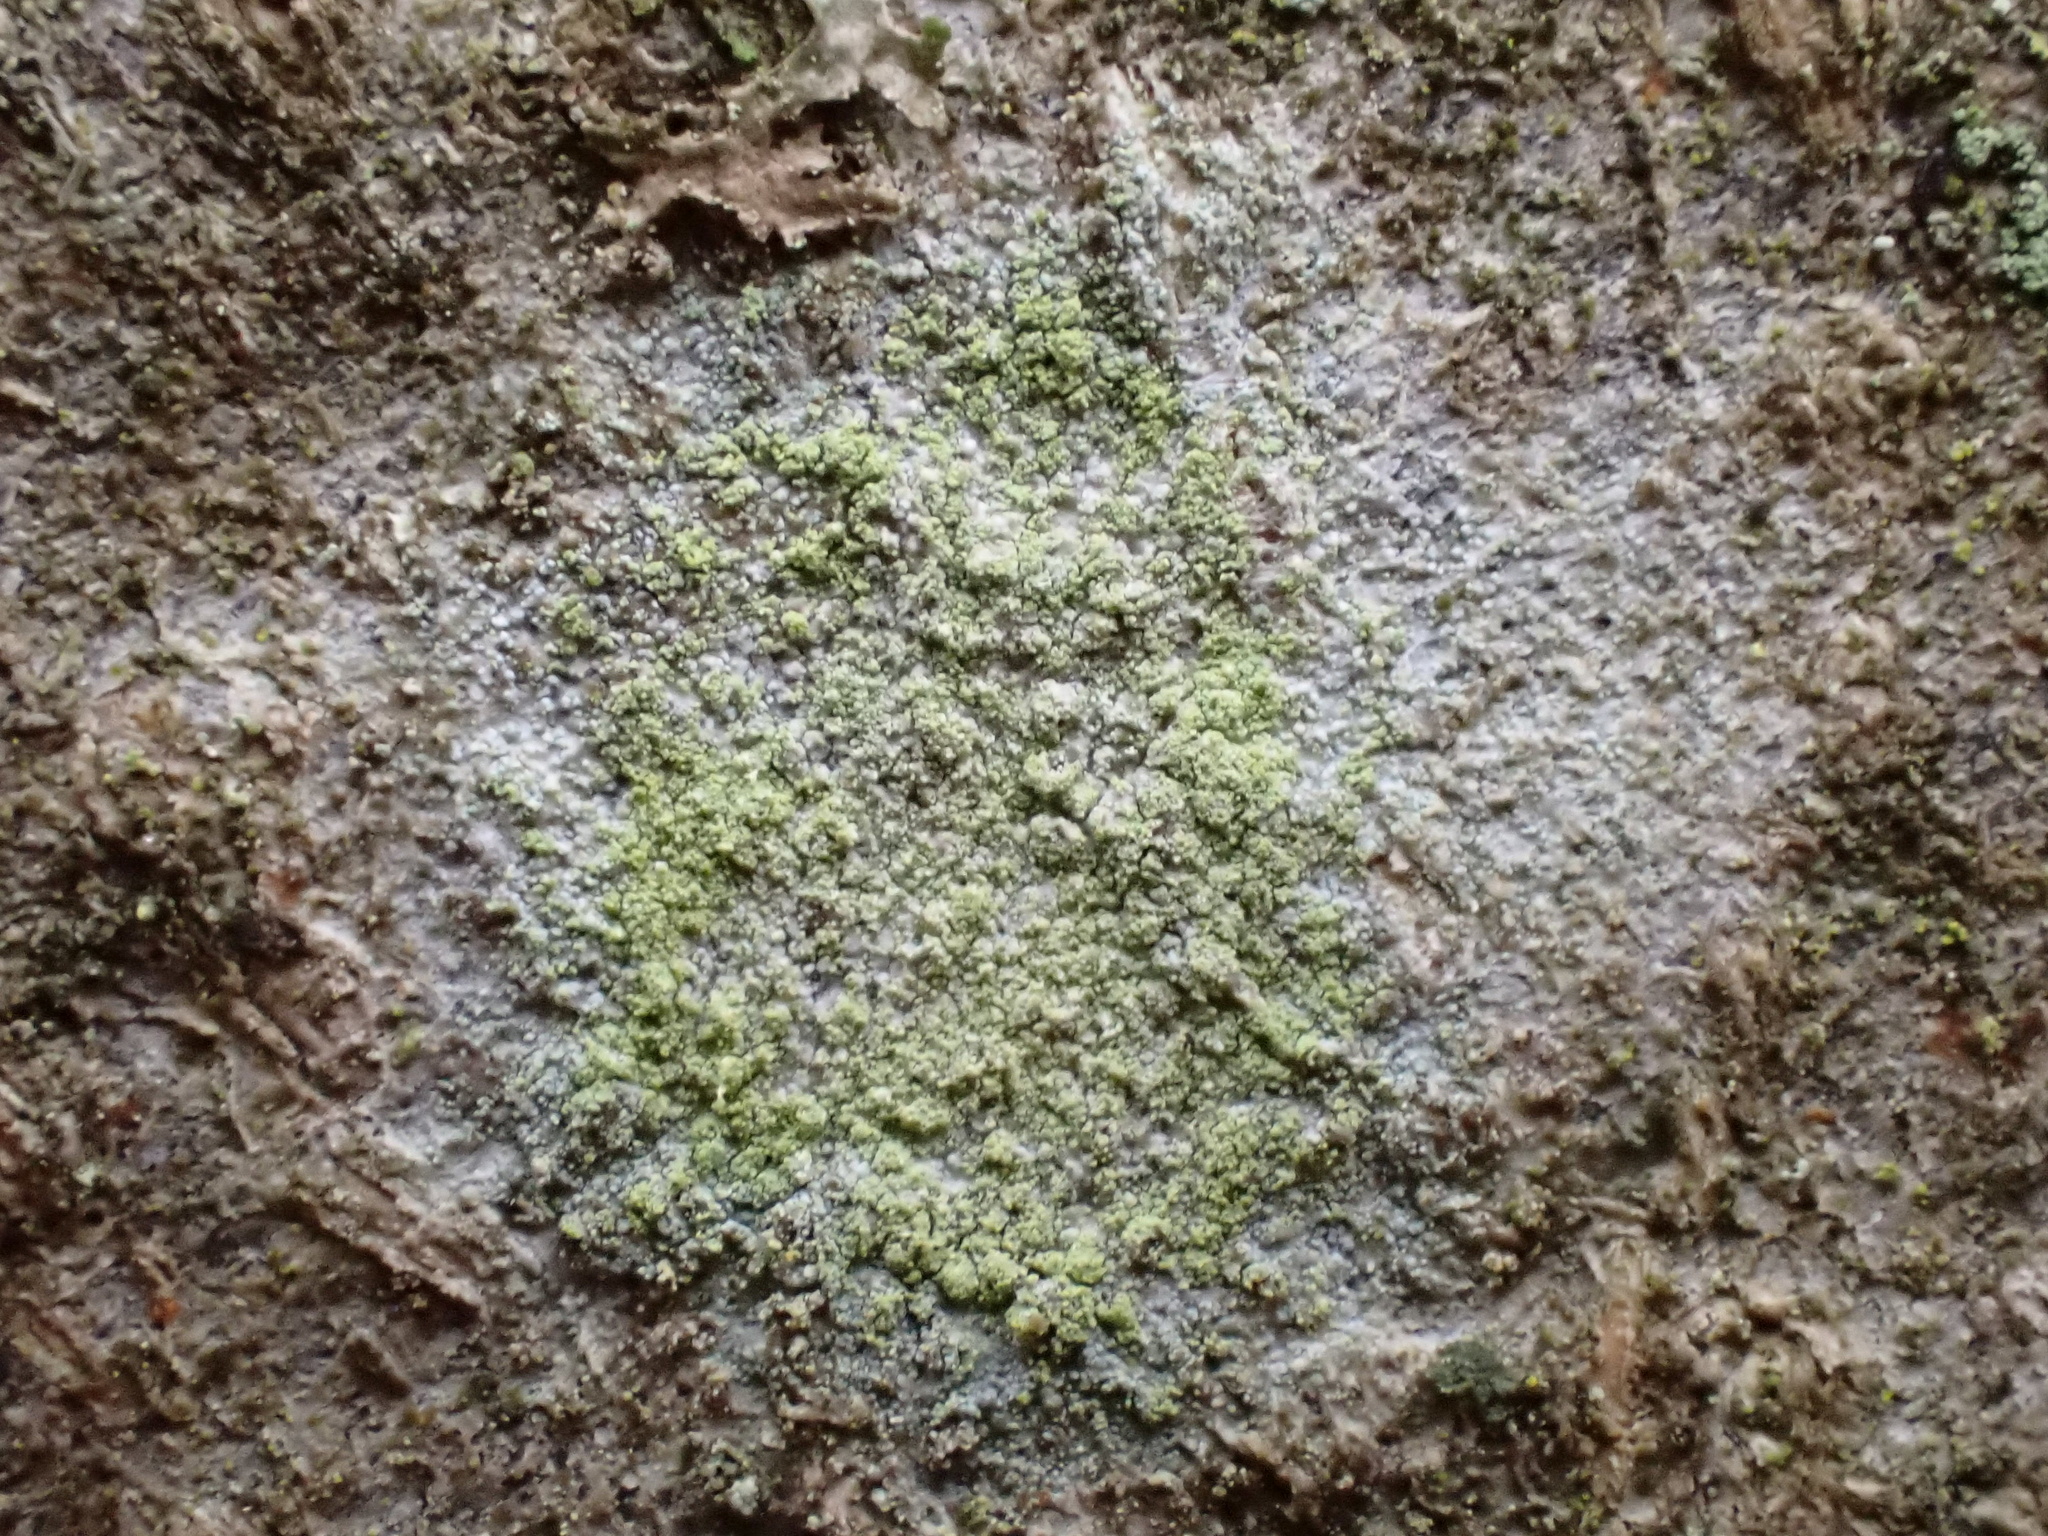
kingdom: Fungi
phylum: Ascomycota
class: Lecanoromycetes
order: Lecanorales
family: Lecanoraceae
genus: Lecanora
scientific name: Lecanora barkmaniana
